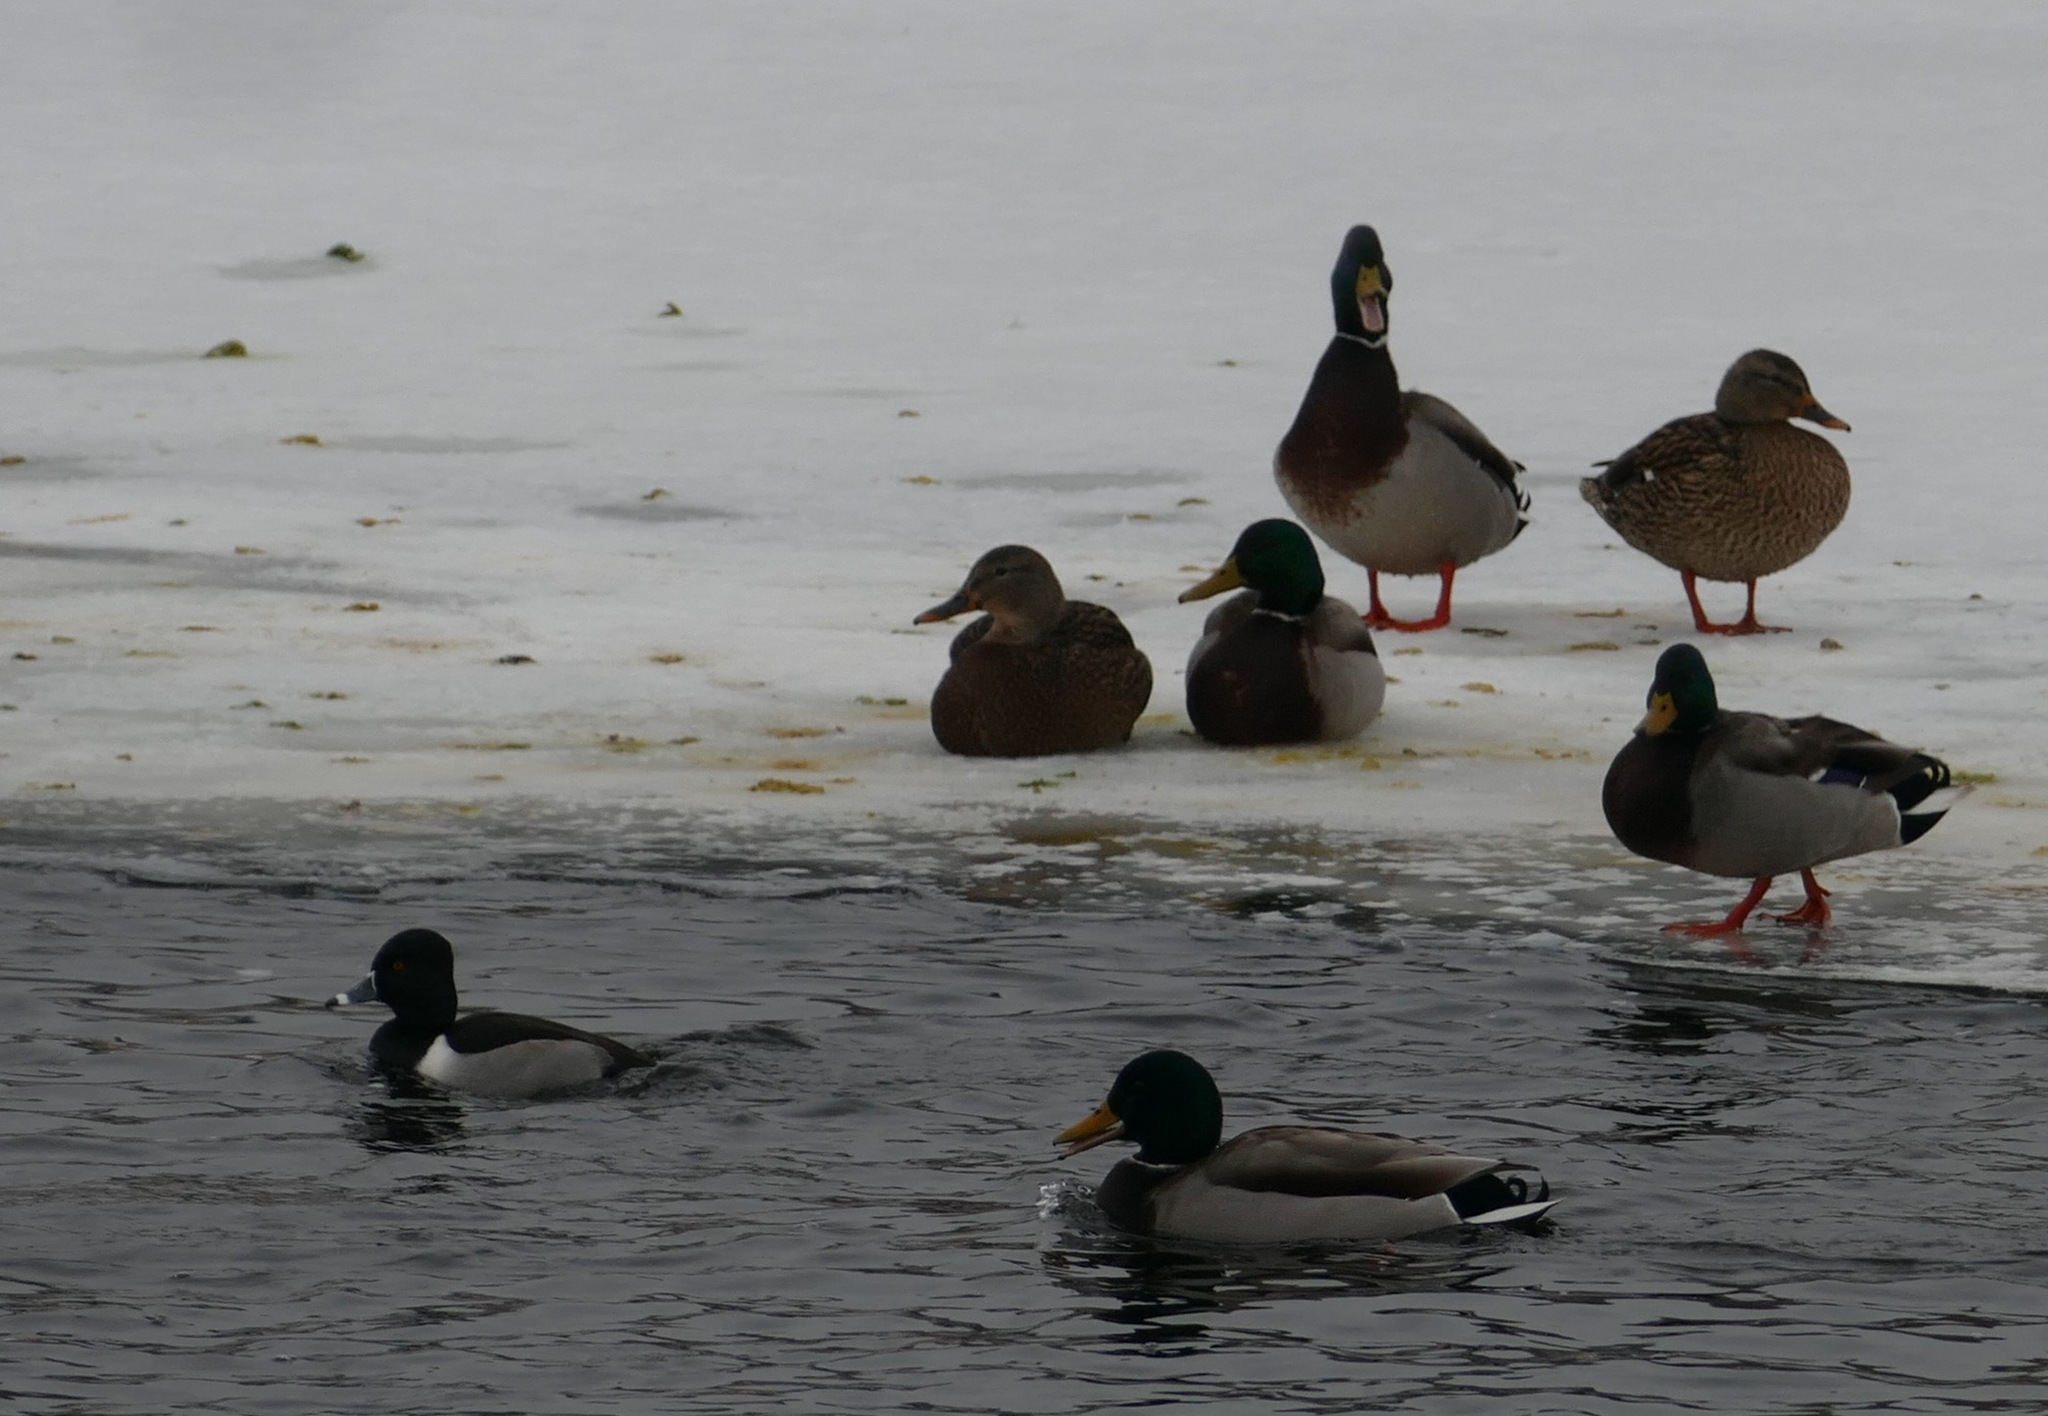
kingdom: Animalia
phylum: Chordata
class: Aves
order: Anseriformes
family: Anatidae
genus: Aythya
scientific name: Aythya collaris
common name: Ring-necked duck
